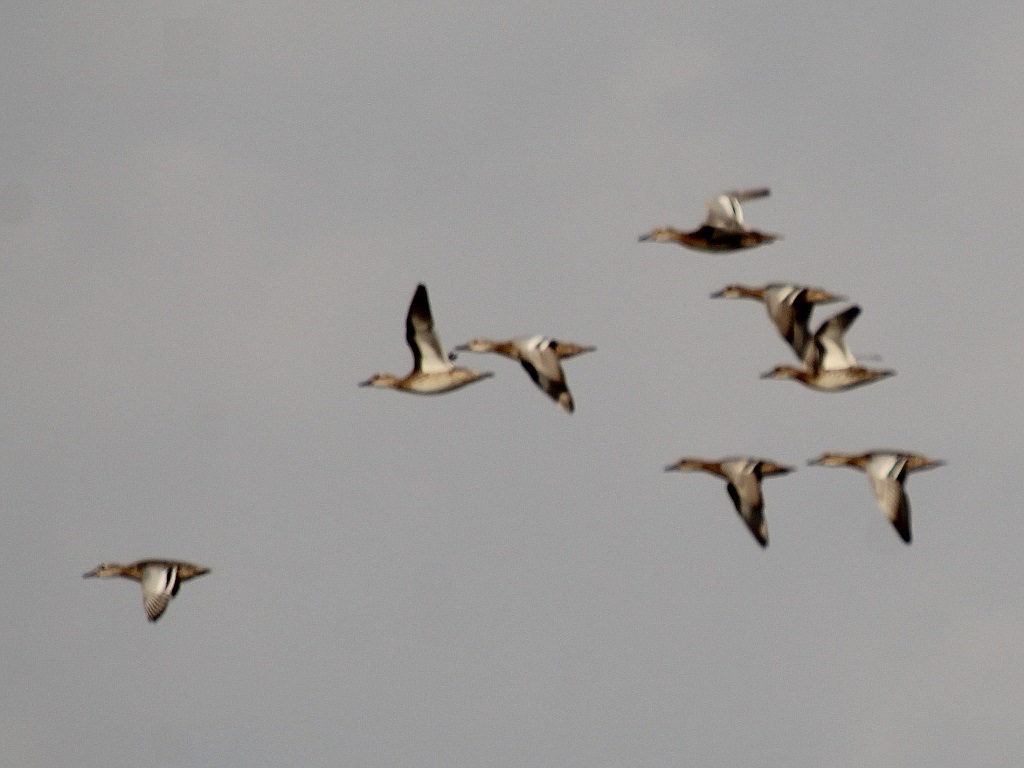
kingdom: Animalia
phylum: Chordata
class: Aves
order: Anseriformes
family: Anatidae
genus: Spatula
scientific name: Spatula querquedula
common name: Garganey
